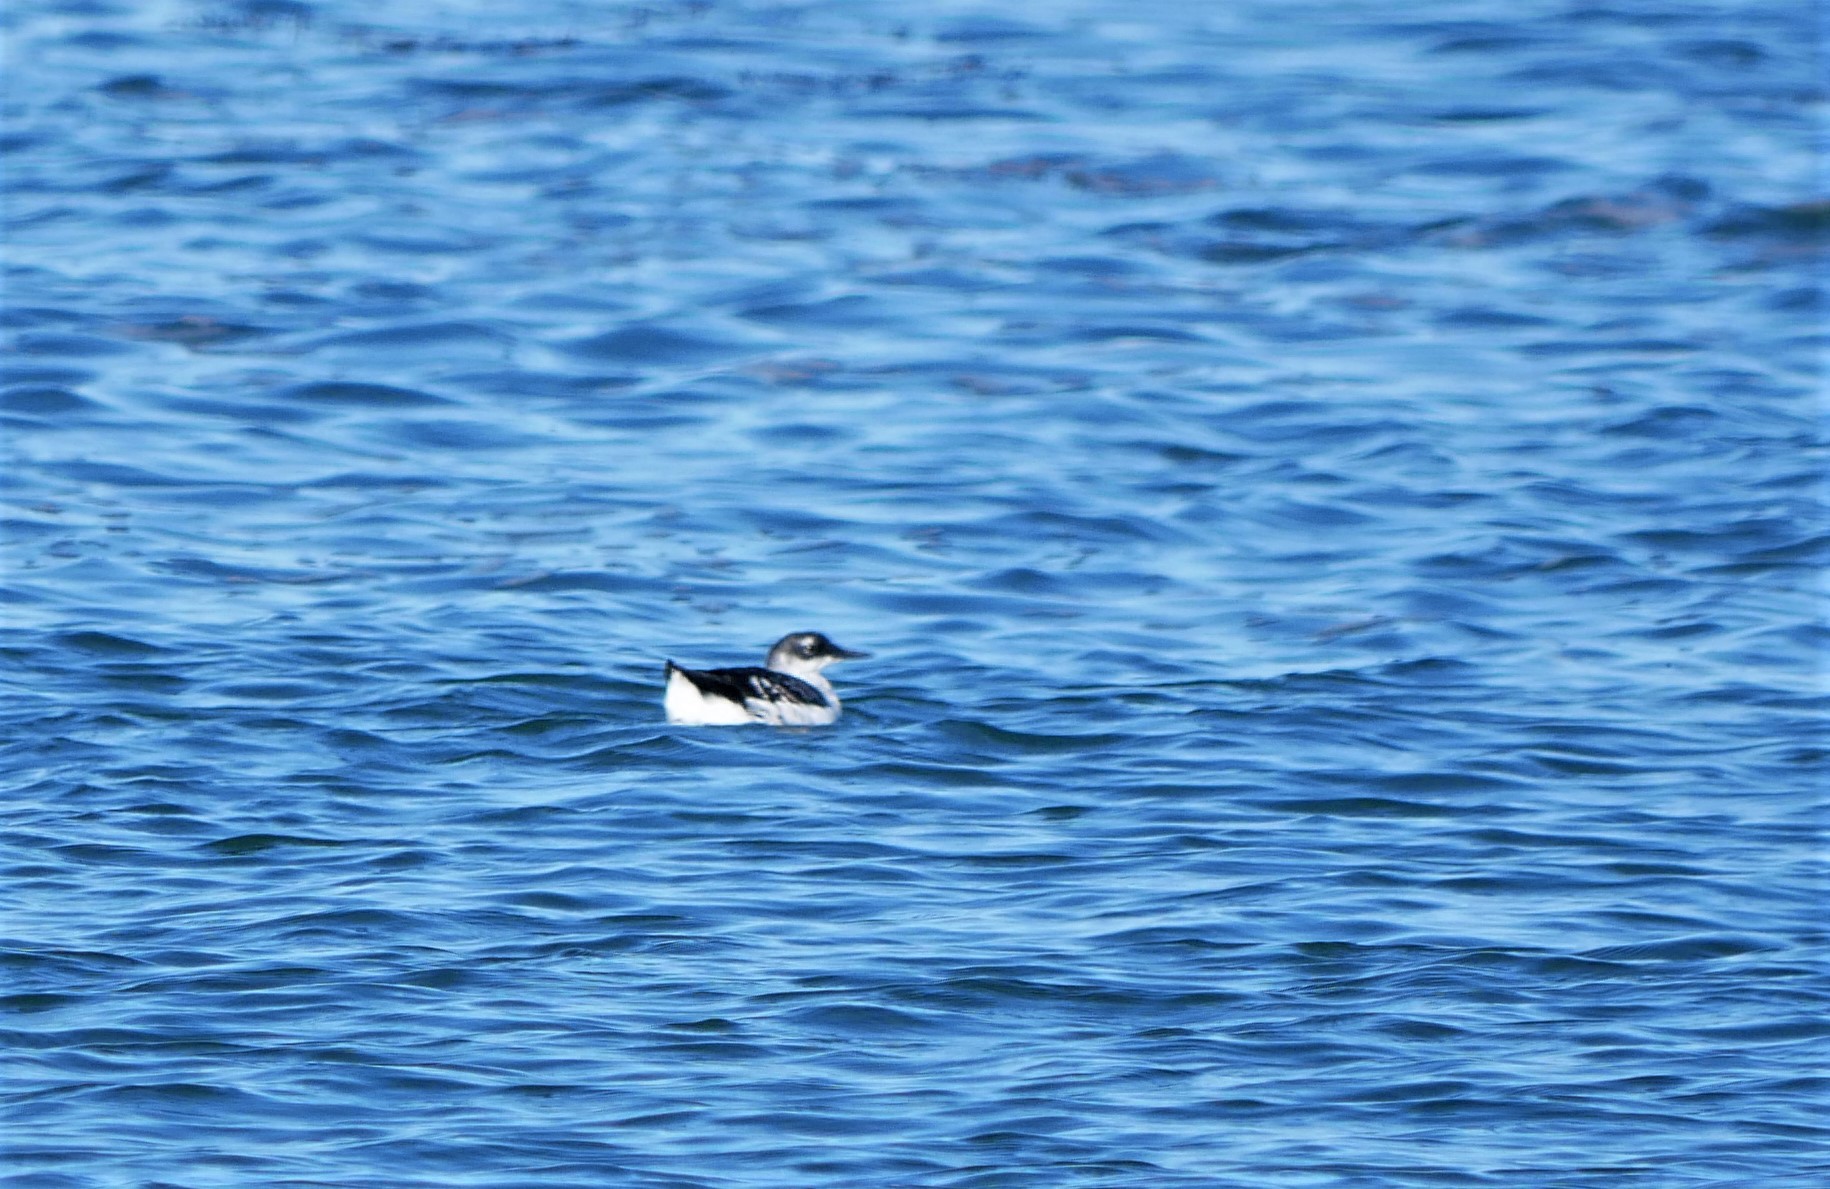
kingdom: Animalia
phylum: Chordata
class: Aves
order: Charadriiformes
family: Alcidae
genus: Cepphus
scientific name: Cepphus grylle
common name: Black guillemot
